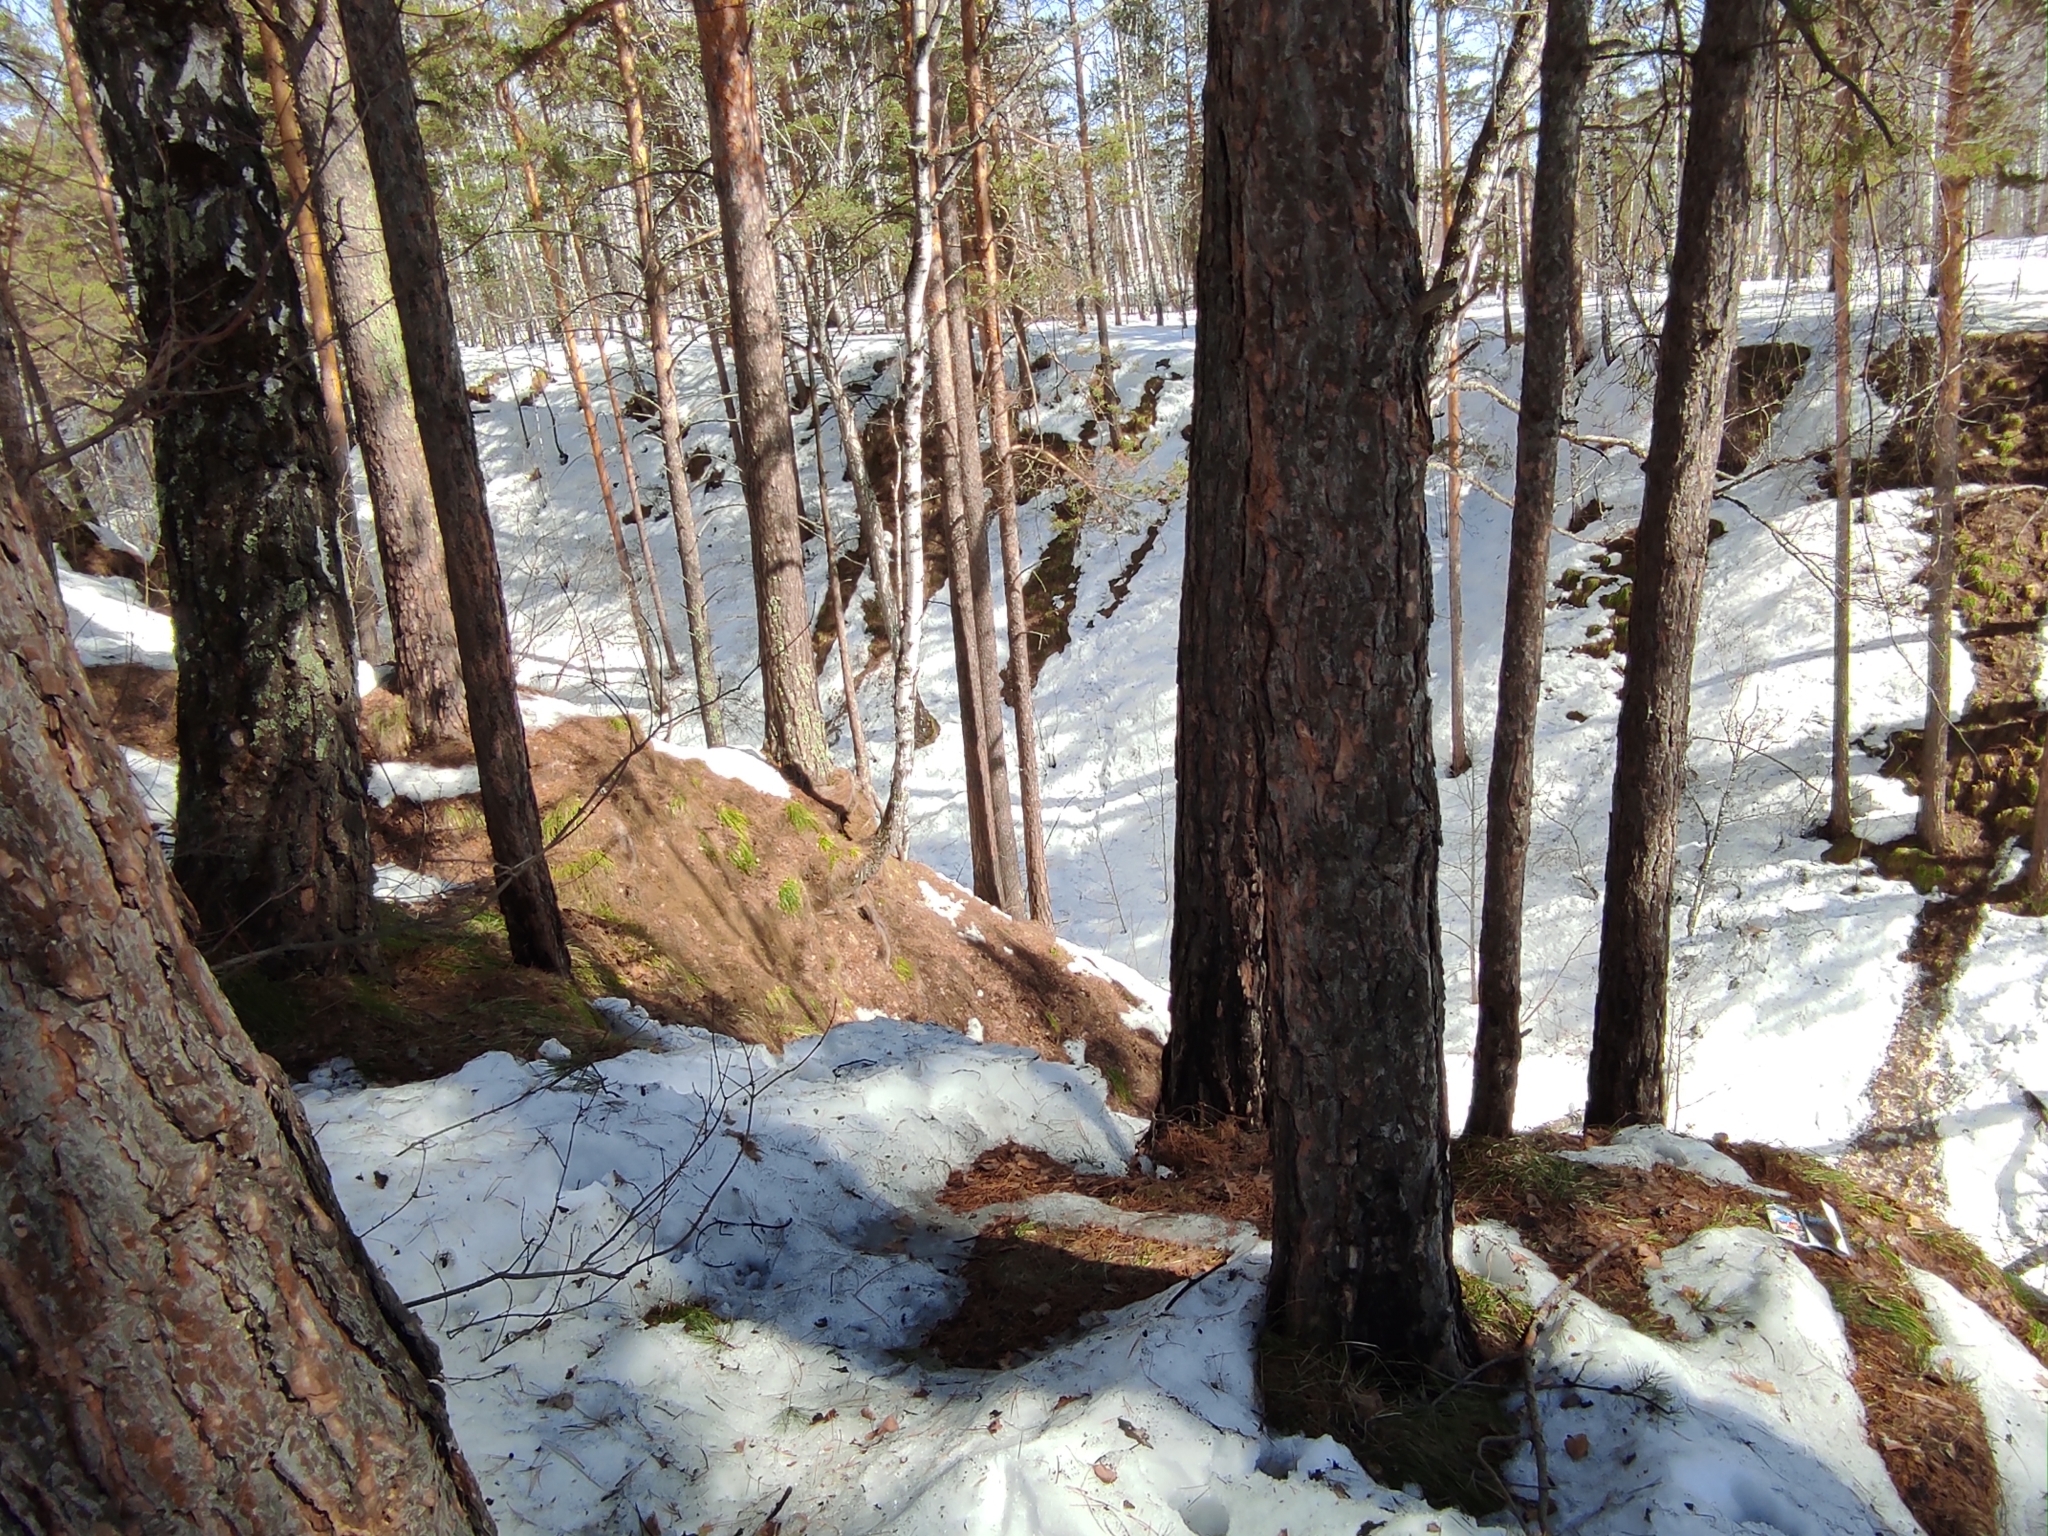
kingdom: Plantae
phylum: Tracheophyta
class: Liliopsida
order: Poales
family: Cyperaceae
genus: Carex
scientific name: Carex pediformis
